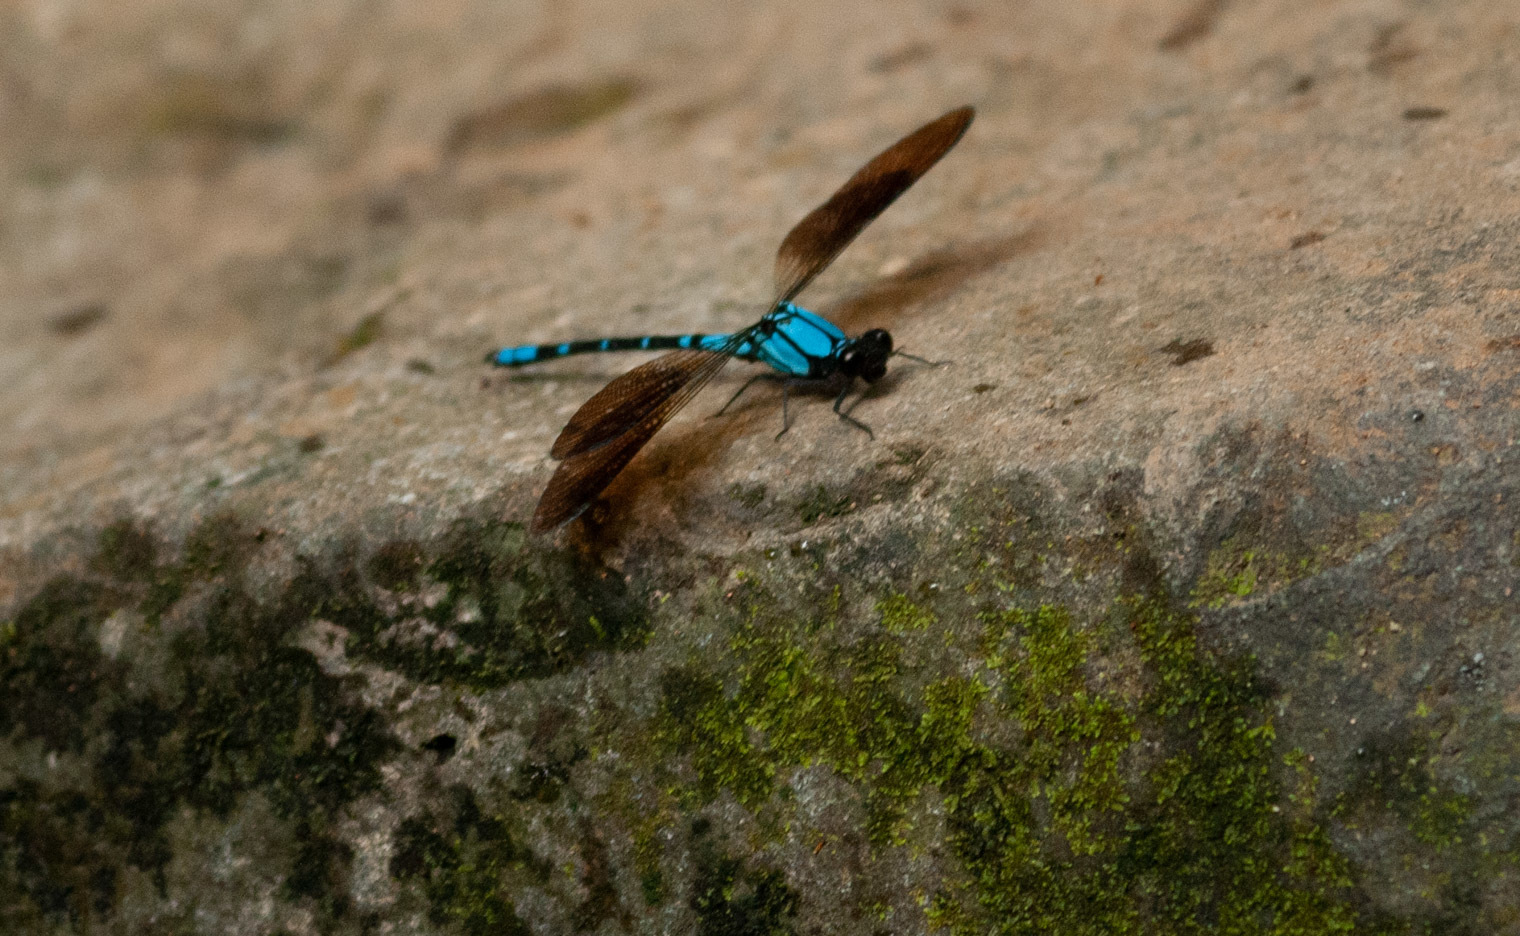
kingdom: Animalia
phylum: Arthropoda
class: Insecta
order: Odonata
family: Lestoideidae
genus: Diphlebia
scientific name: Diphlebia coerulescens
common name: Sapphire rockmaster
